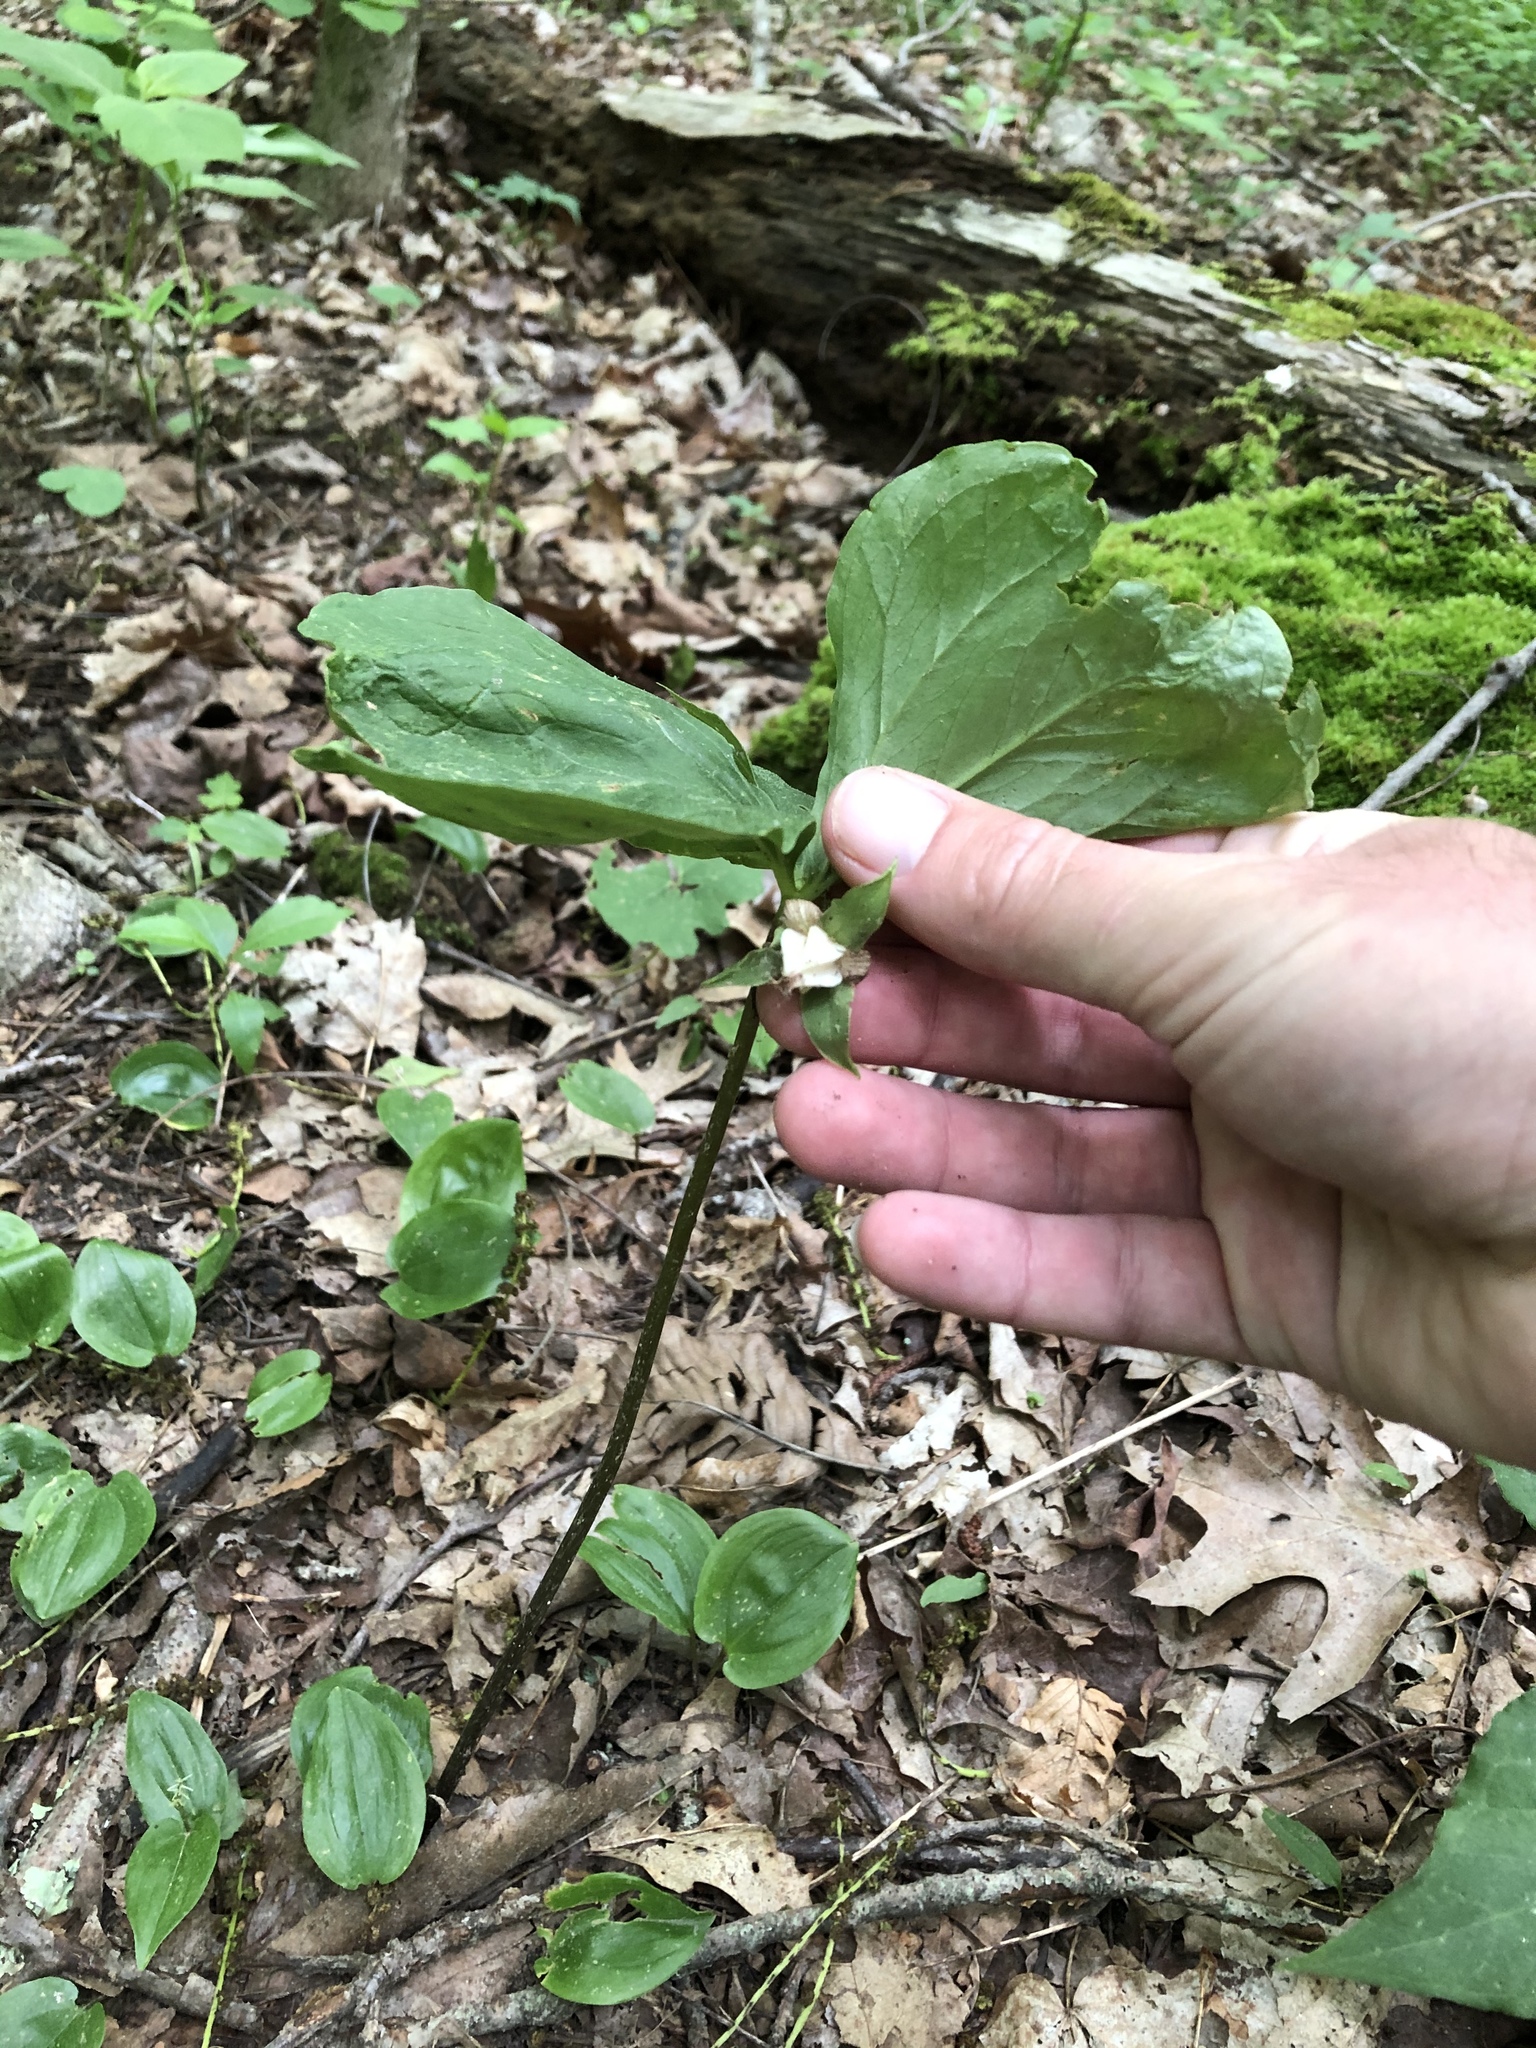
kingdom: Plantae
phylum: Tracheophyta
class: Liliopsida
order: Liliales
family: Melanthiaceae
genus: Trillium
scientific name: Trillium cernuum
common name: Nodding trillium
